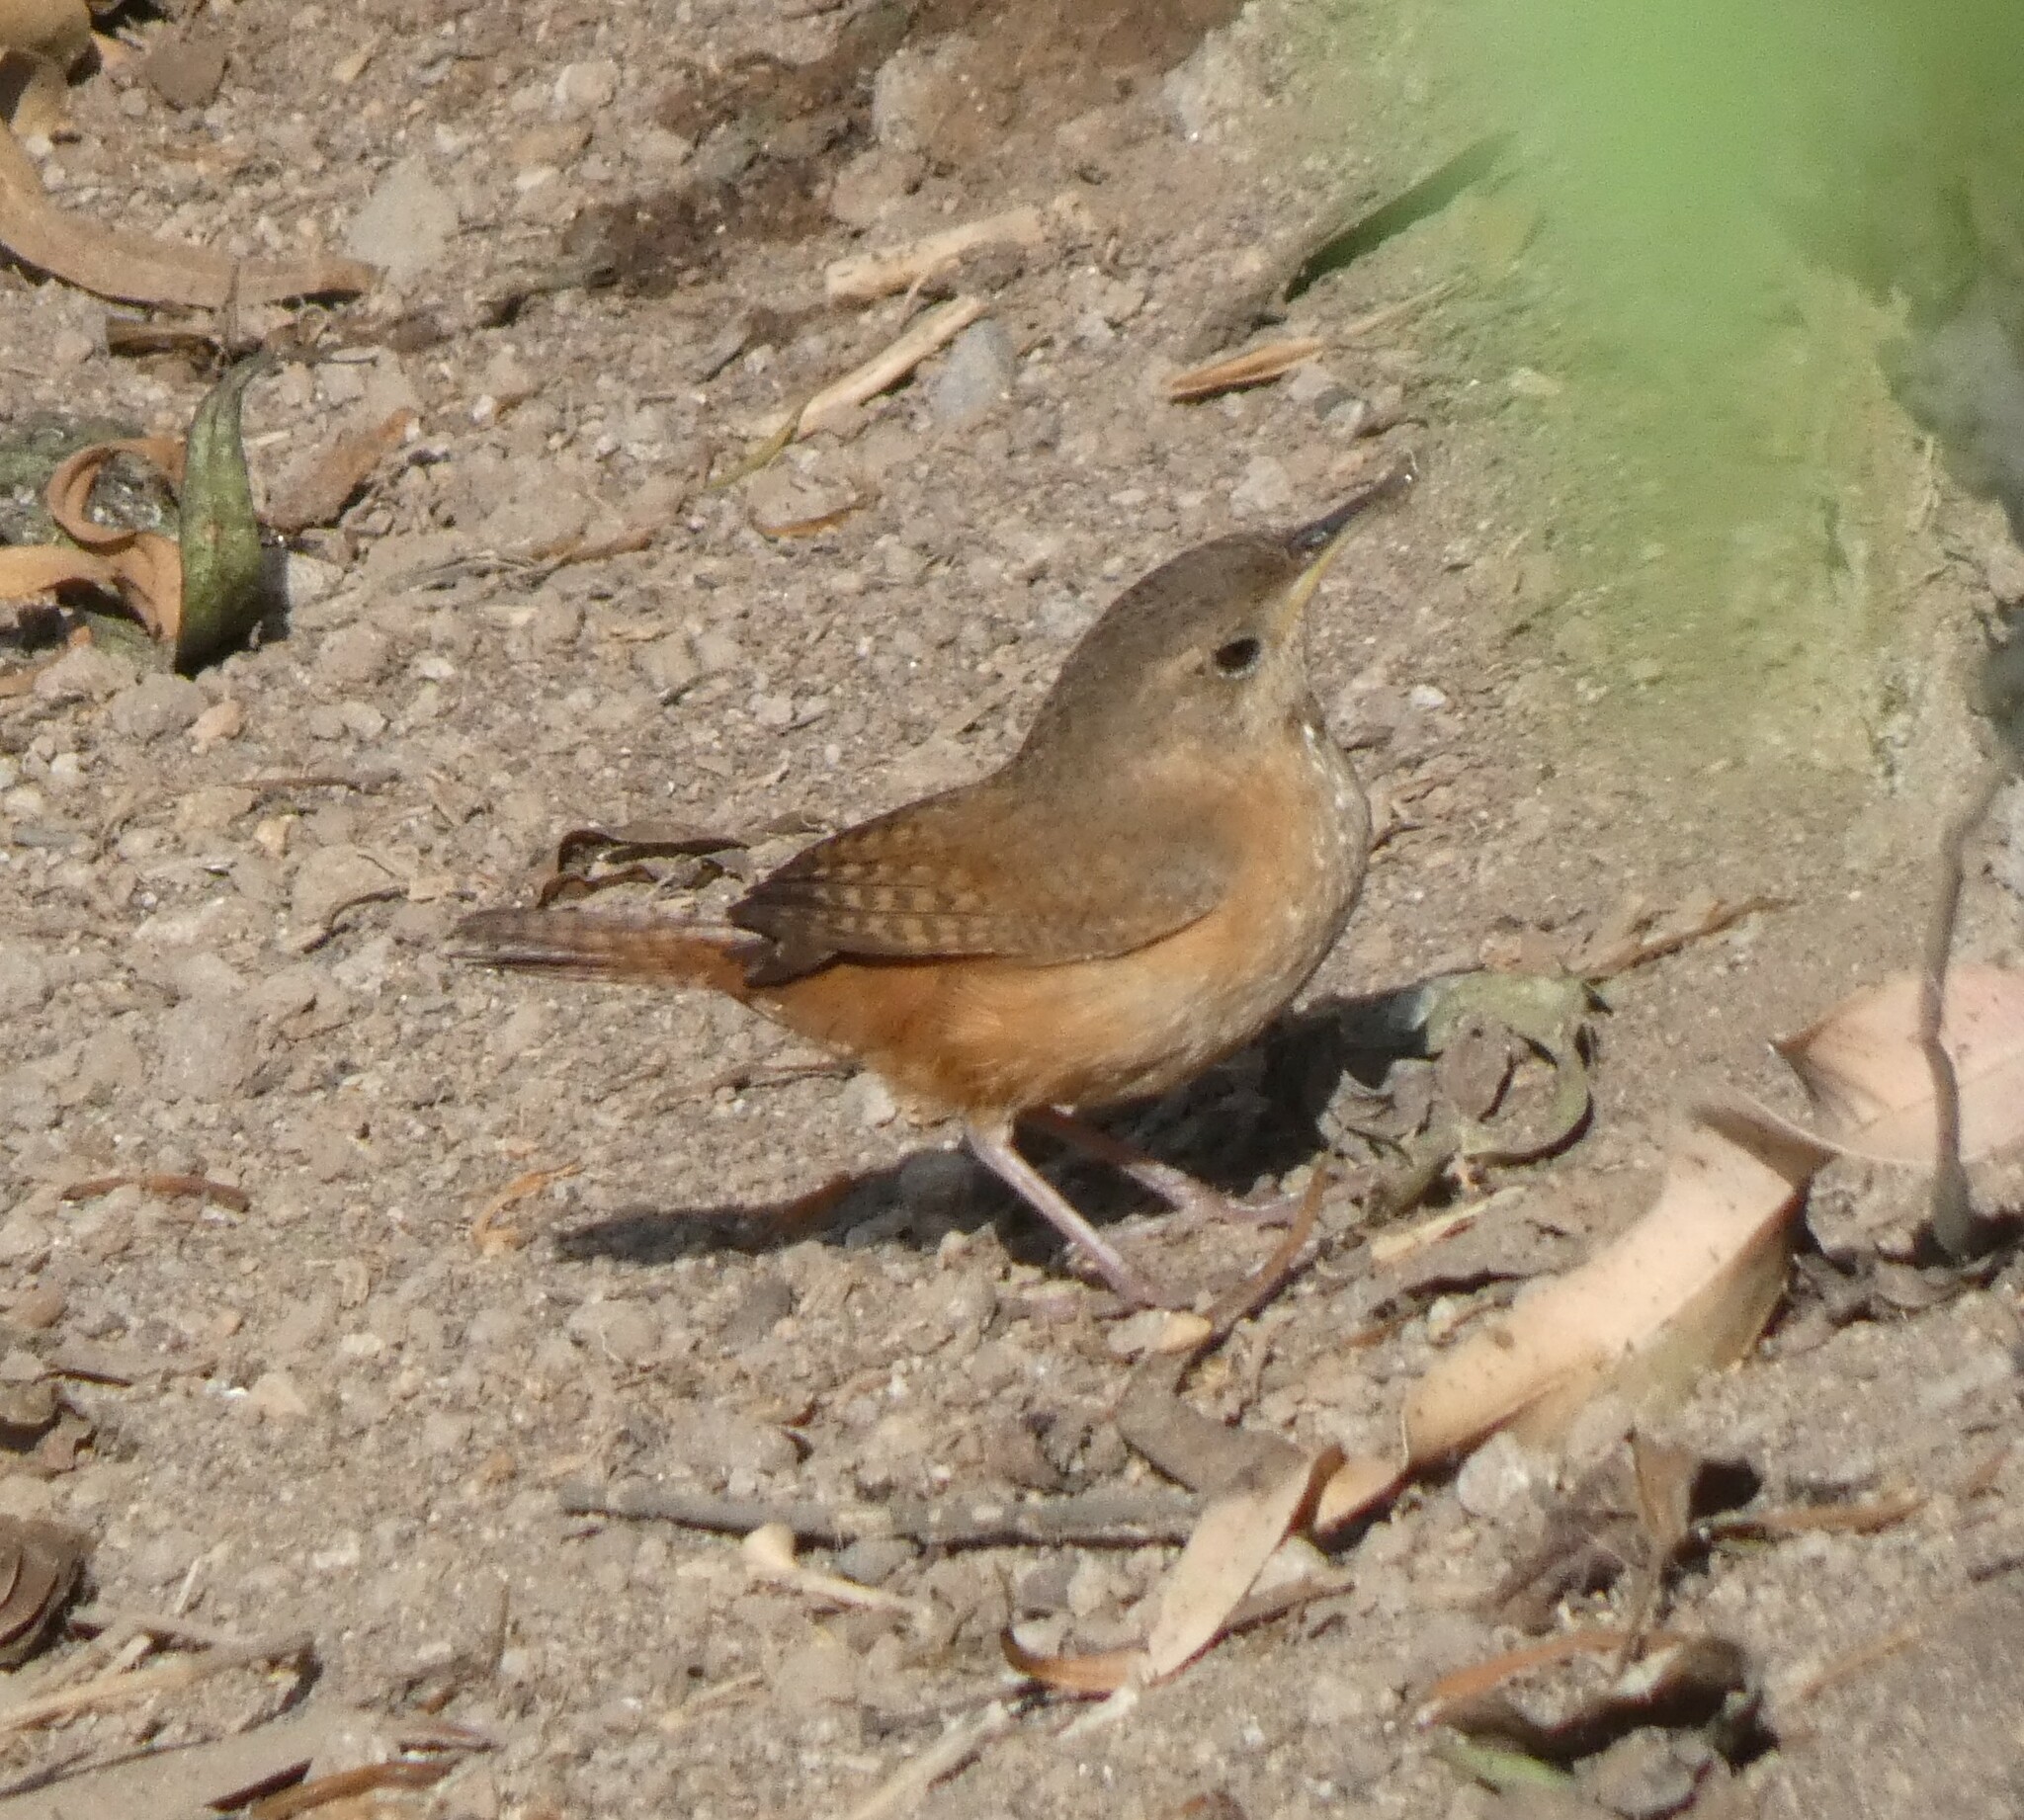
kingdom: Animalia
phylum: Chordata
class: Aves
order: Passeriformes
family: Troglodytidae
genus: Troglodytes
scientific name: Troglodytes aedon
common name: House wren
